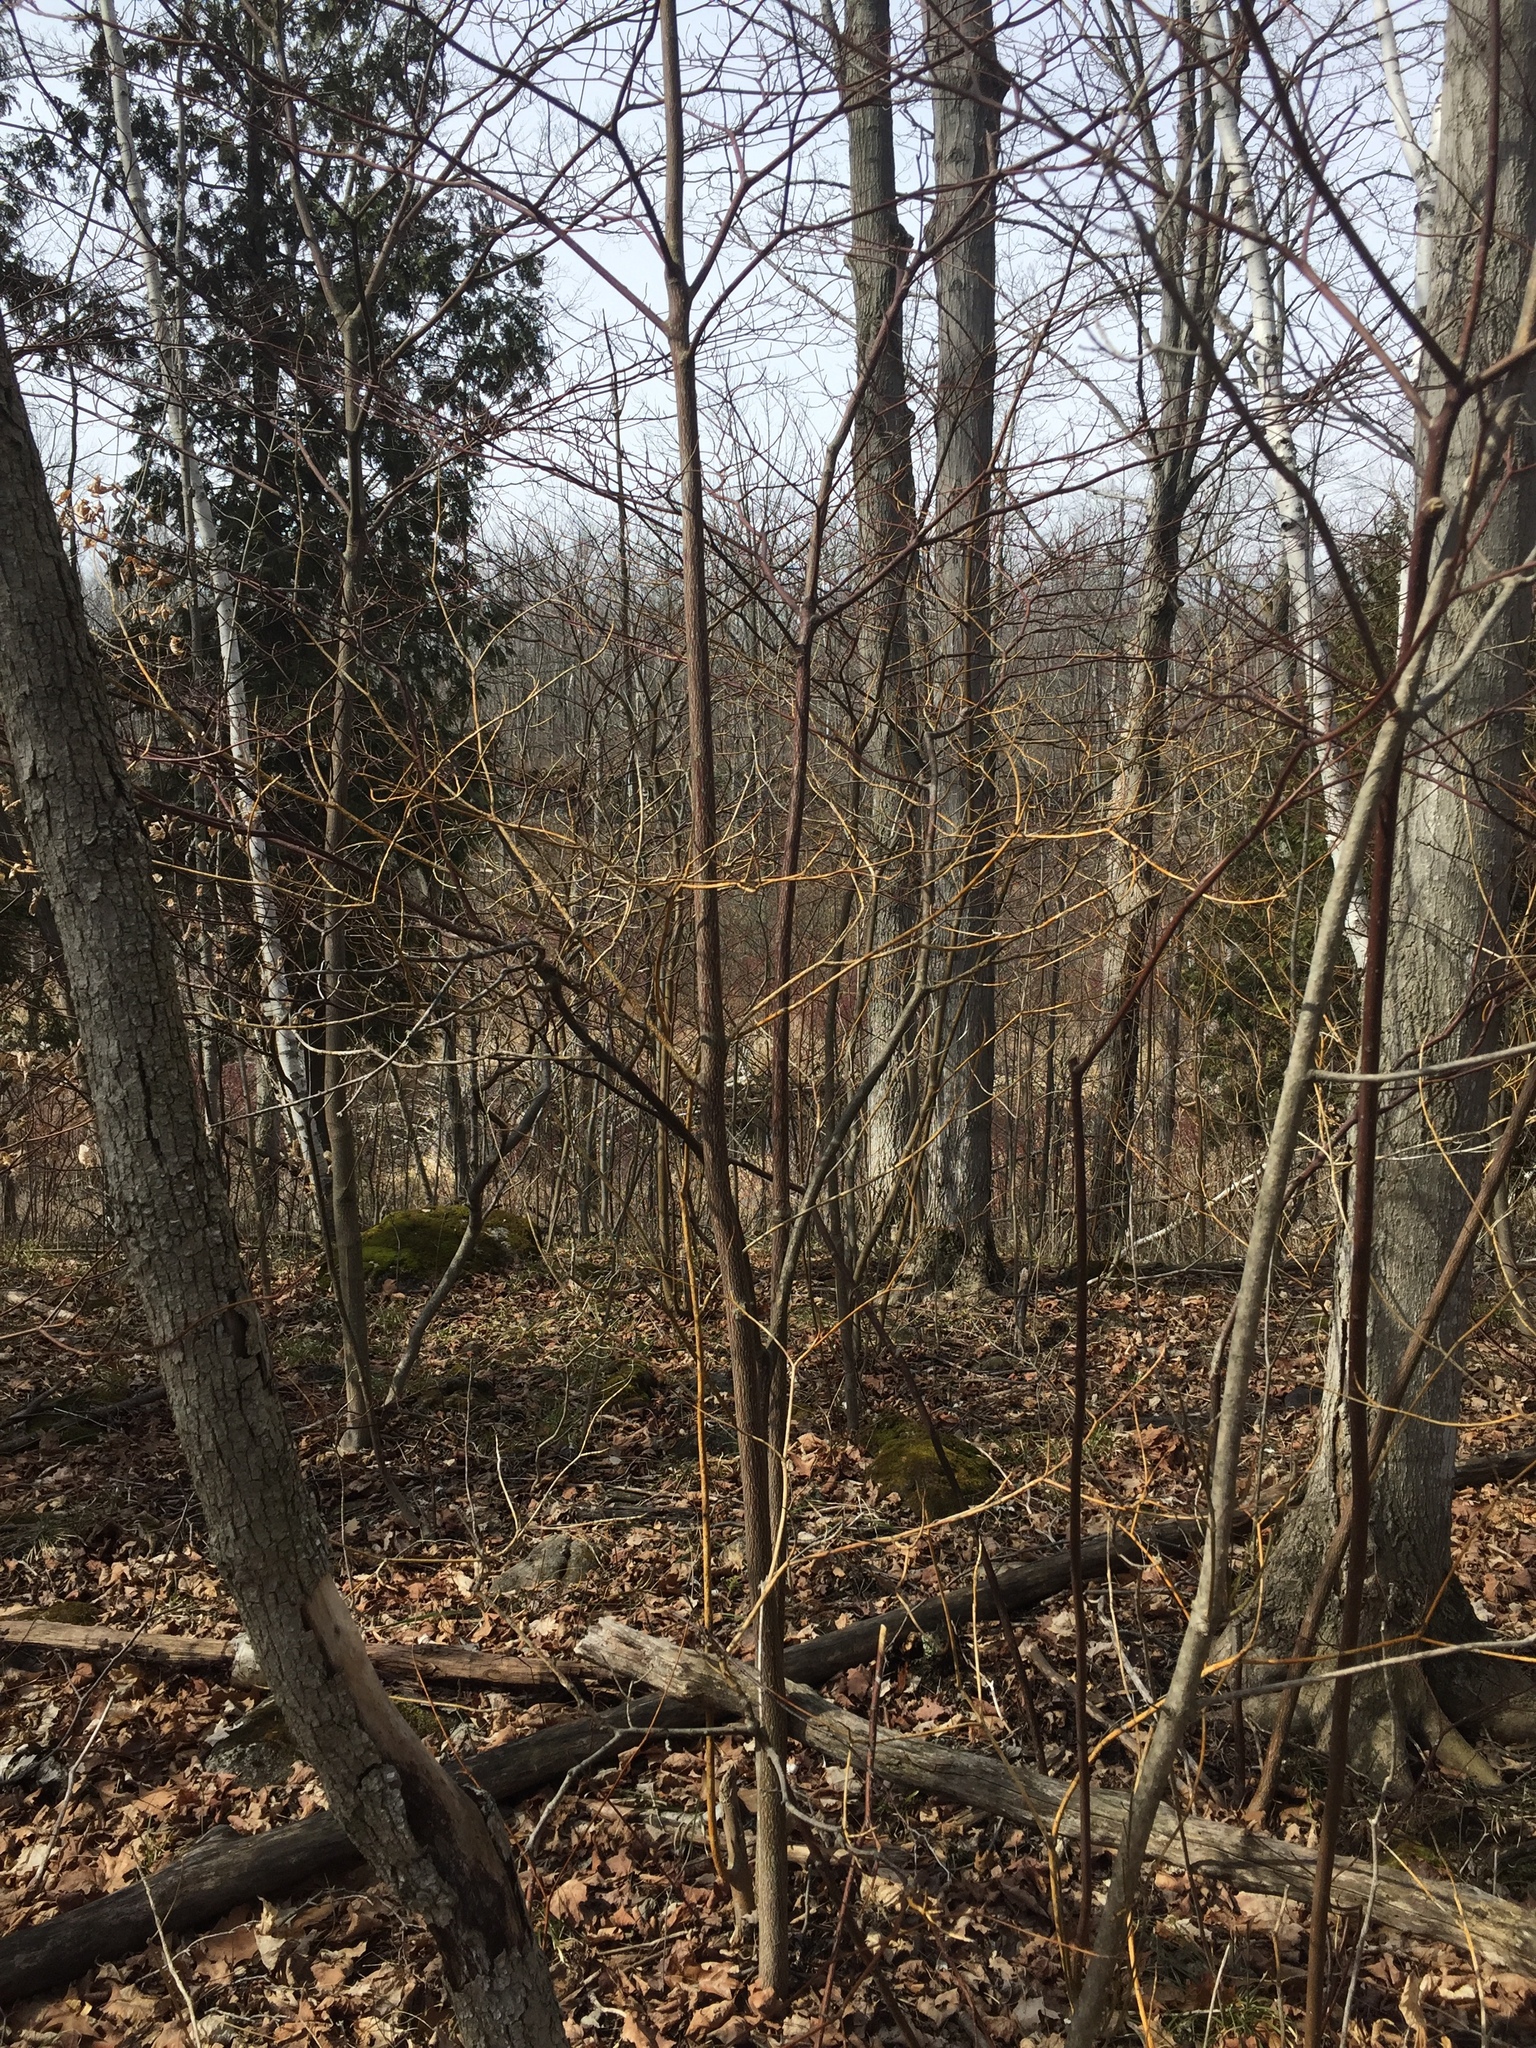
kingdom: Plantae
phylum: Tracheophyta
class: Magnoliopsida
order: Cornales
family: Cornaceae
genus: Cornus
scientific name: Cornus alternifolia
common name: Pagoda dogwood
